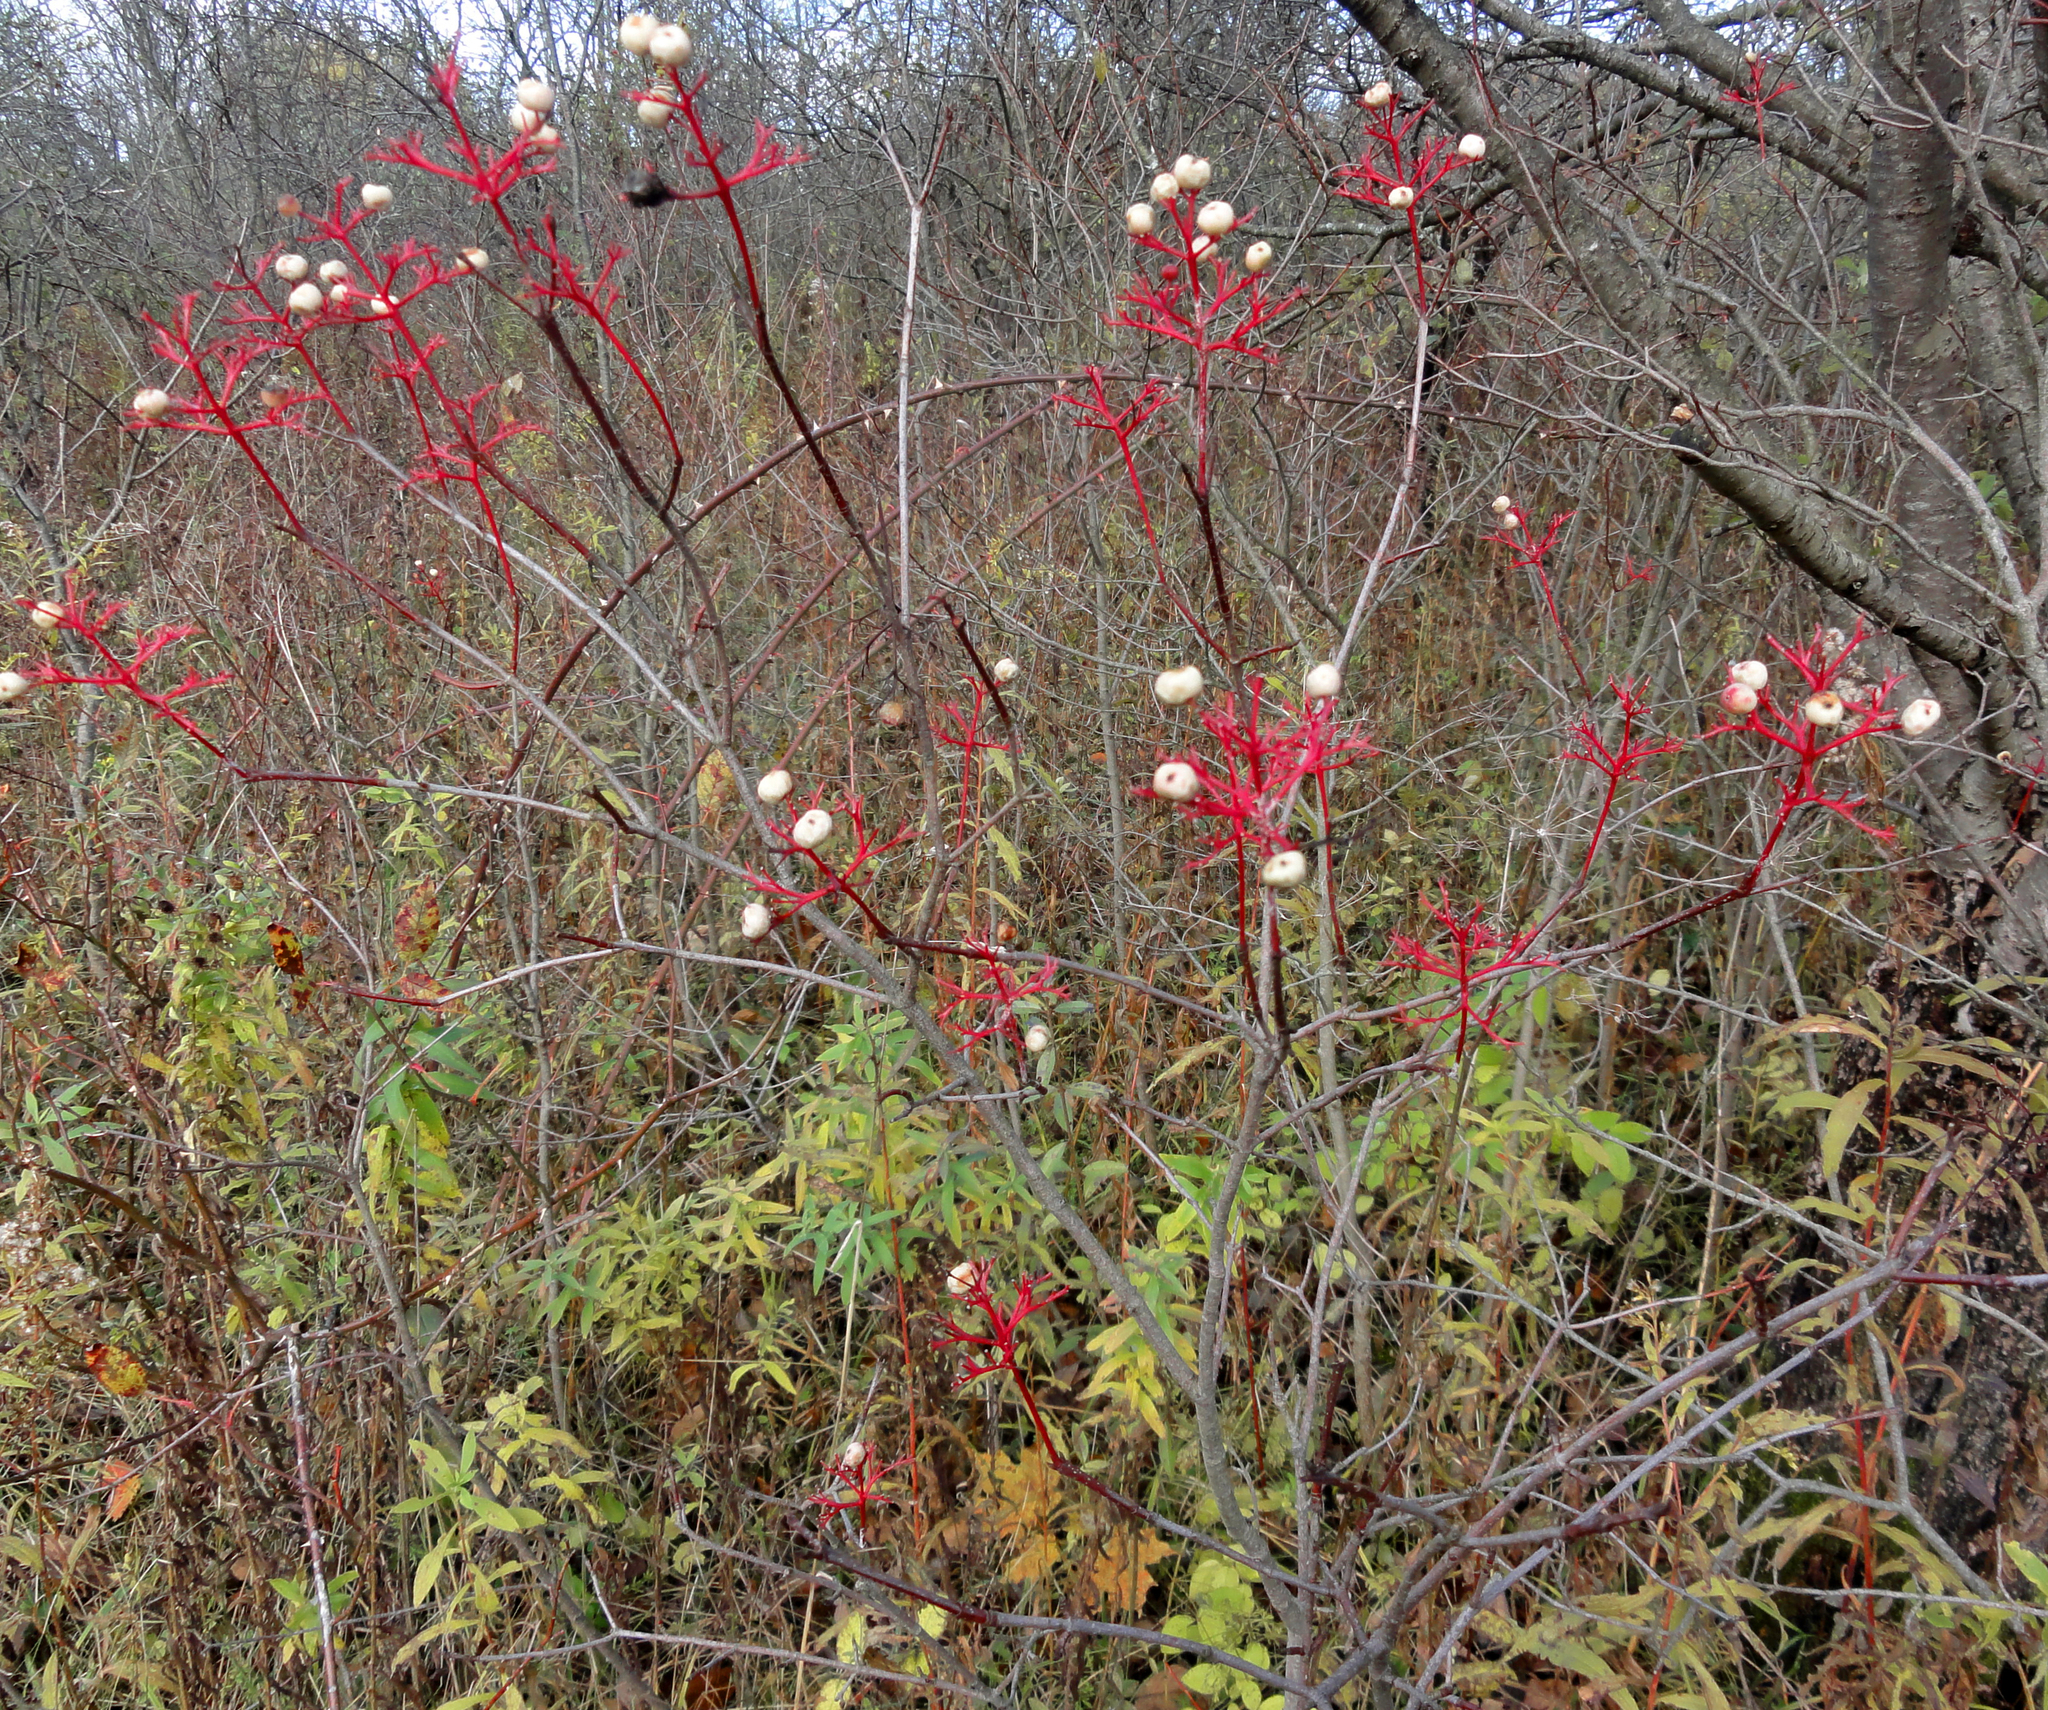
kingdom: Plantae
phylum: Tracheophyta
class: Magnoliopsida
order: Cornales
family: Cornaceae
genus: Cornus
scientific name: Cornus racemosa
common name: Panicled dogwood
